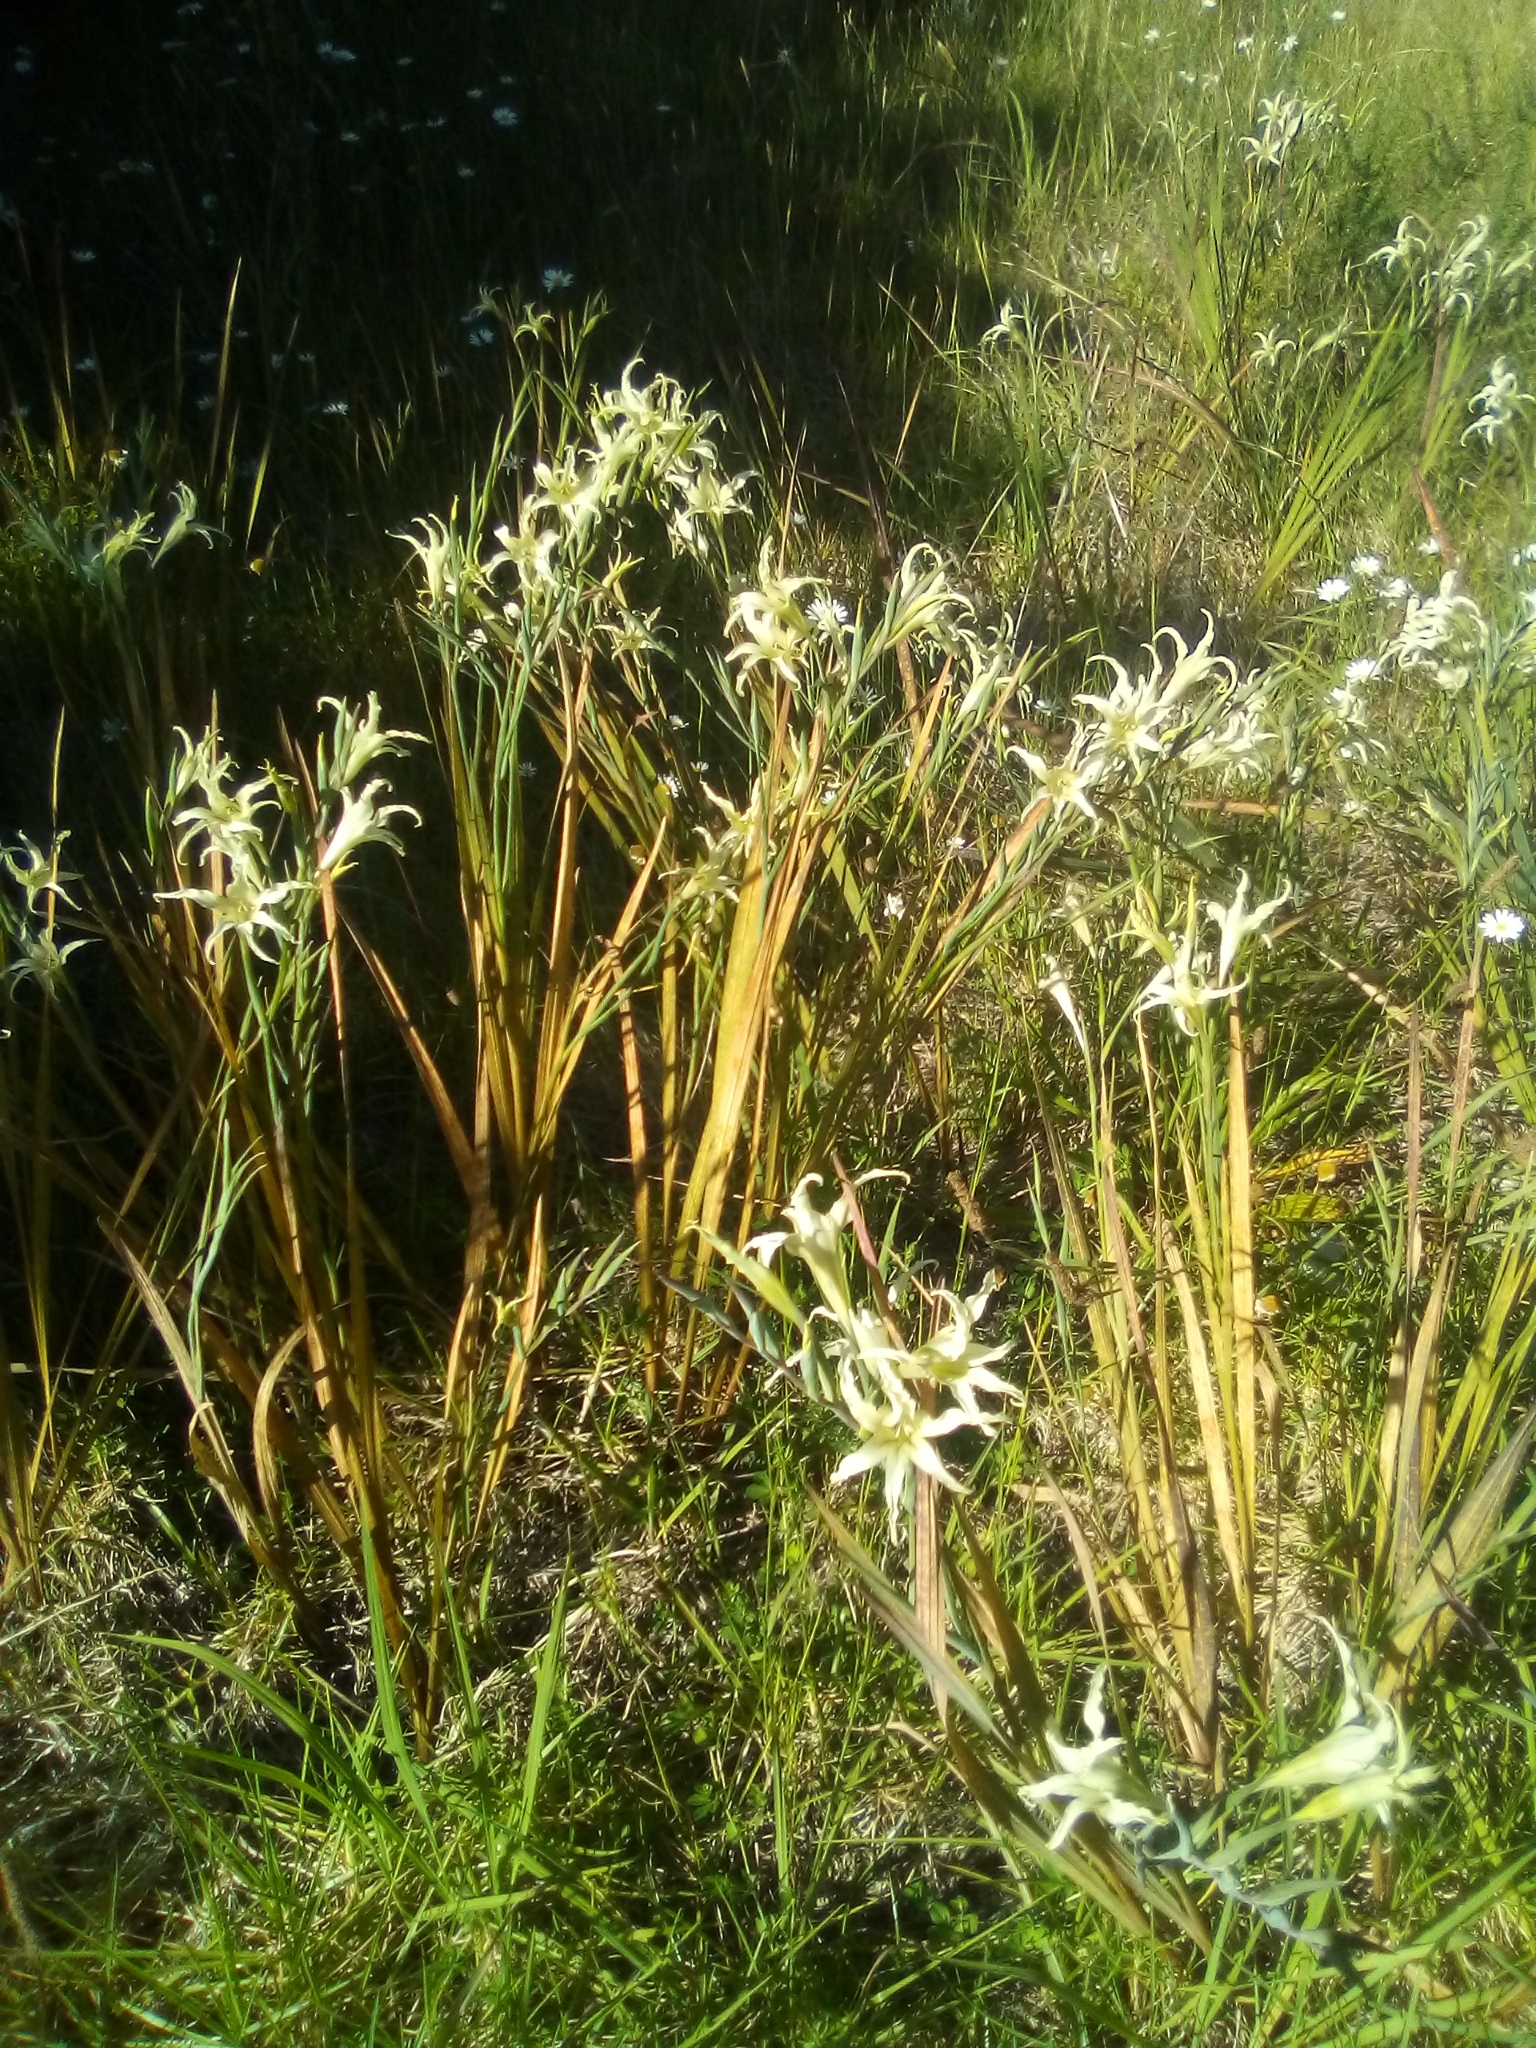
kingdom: Plantae
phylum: Tracheophyta
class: Liliopsida
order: Asparagales
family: Iridaceae
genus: Gladiolus
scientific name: Gladiolus undulatus
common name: Large painted-lady
